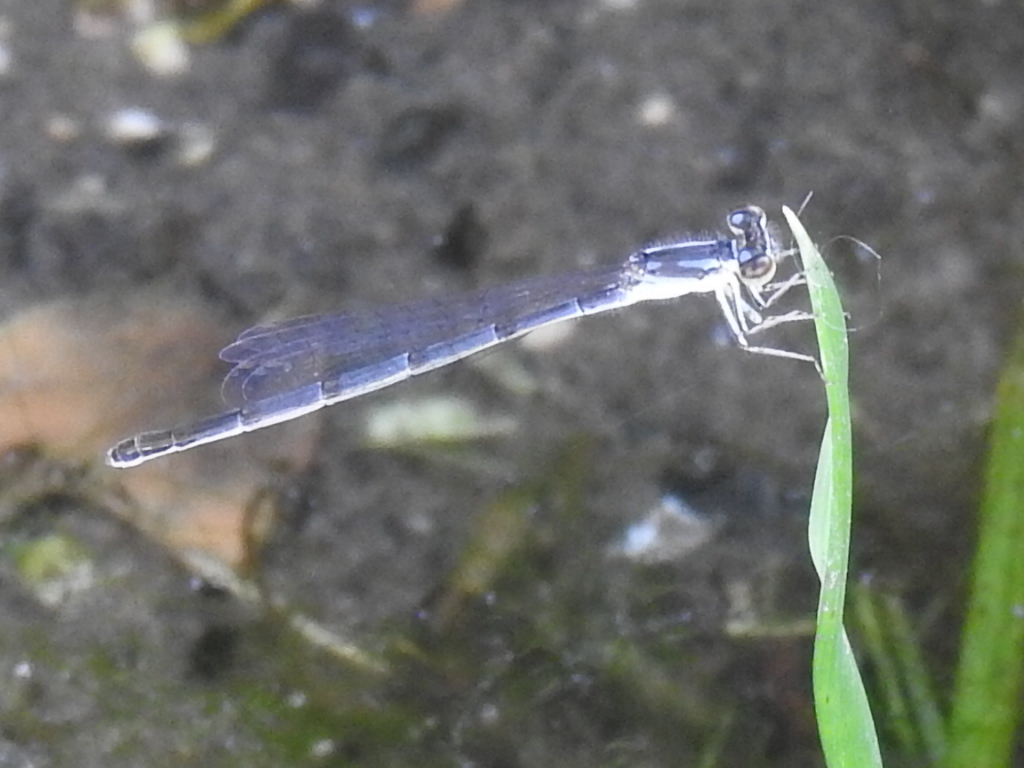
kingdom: Animalia
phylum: Arthropoda
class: Insecta
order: Odonata
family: Coenagrionidae
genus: Ischnura
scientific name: Ischnura posita
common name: Fragile forktail
